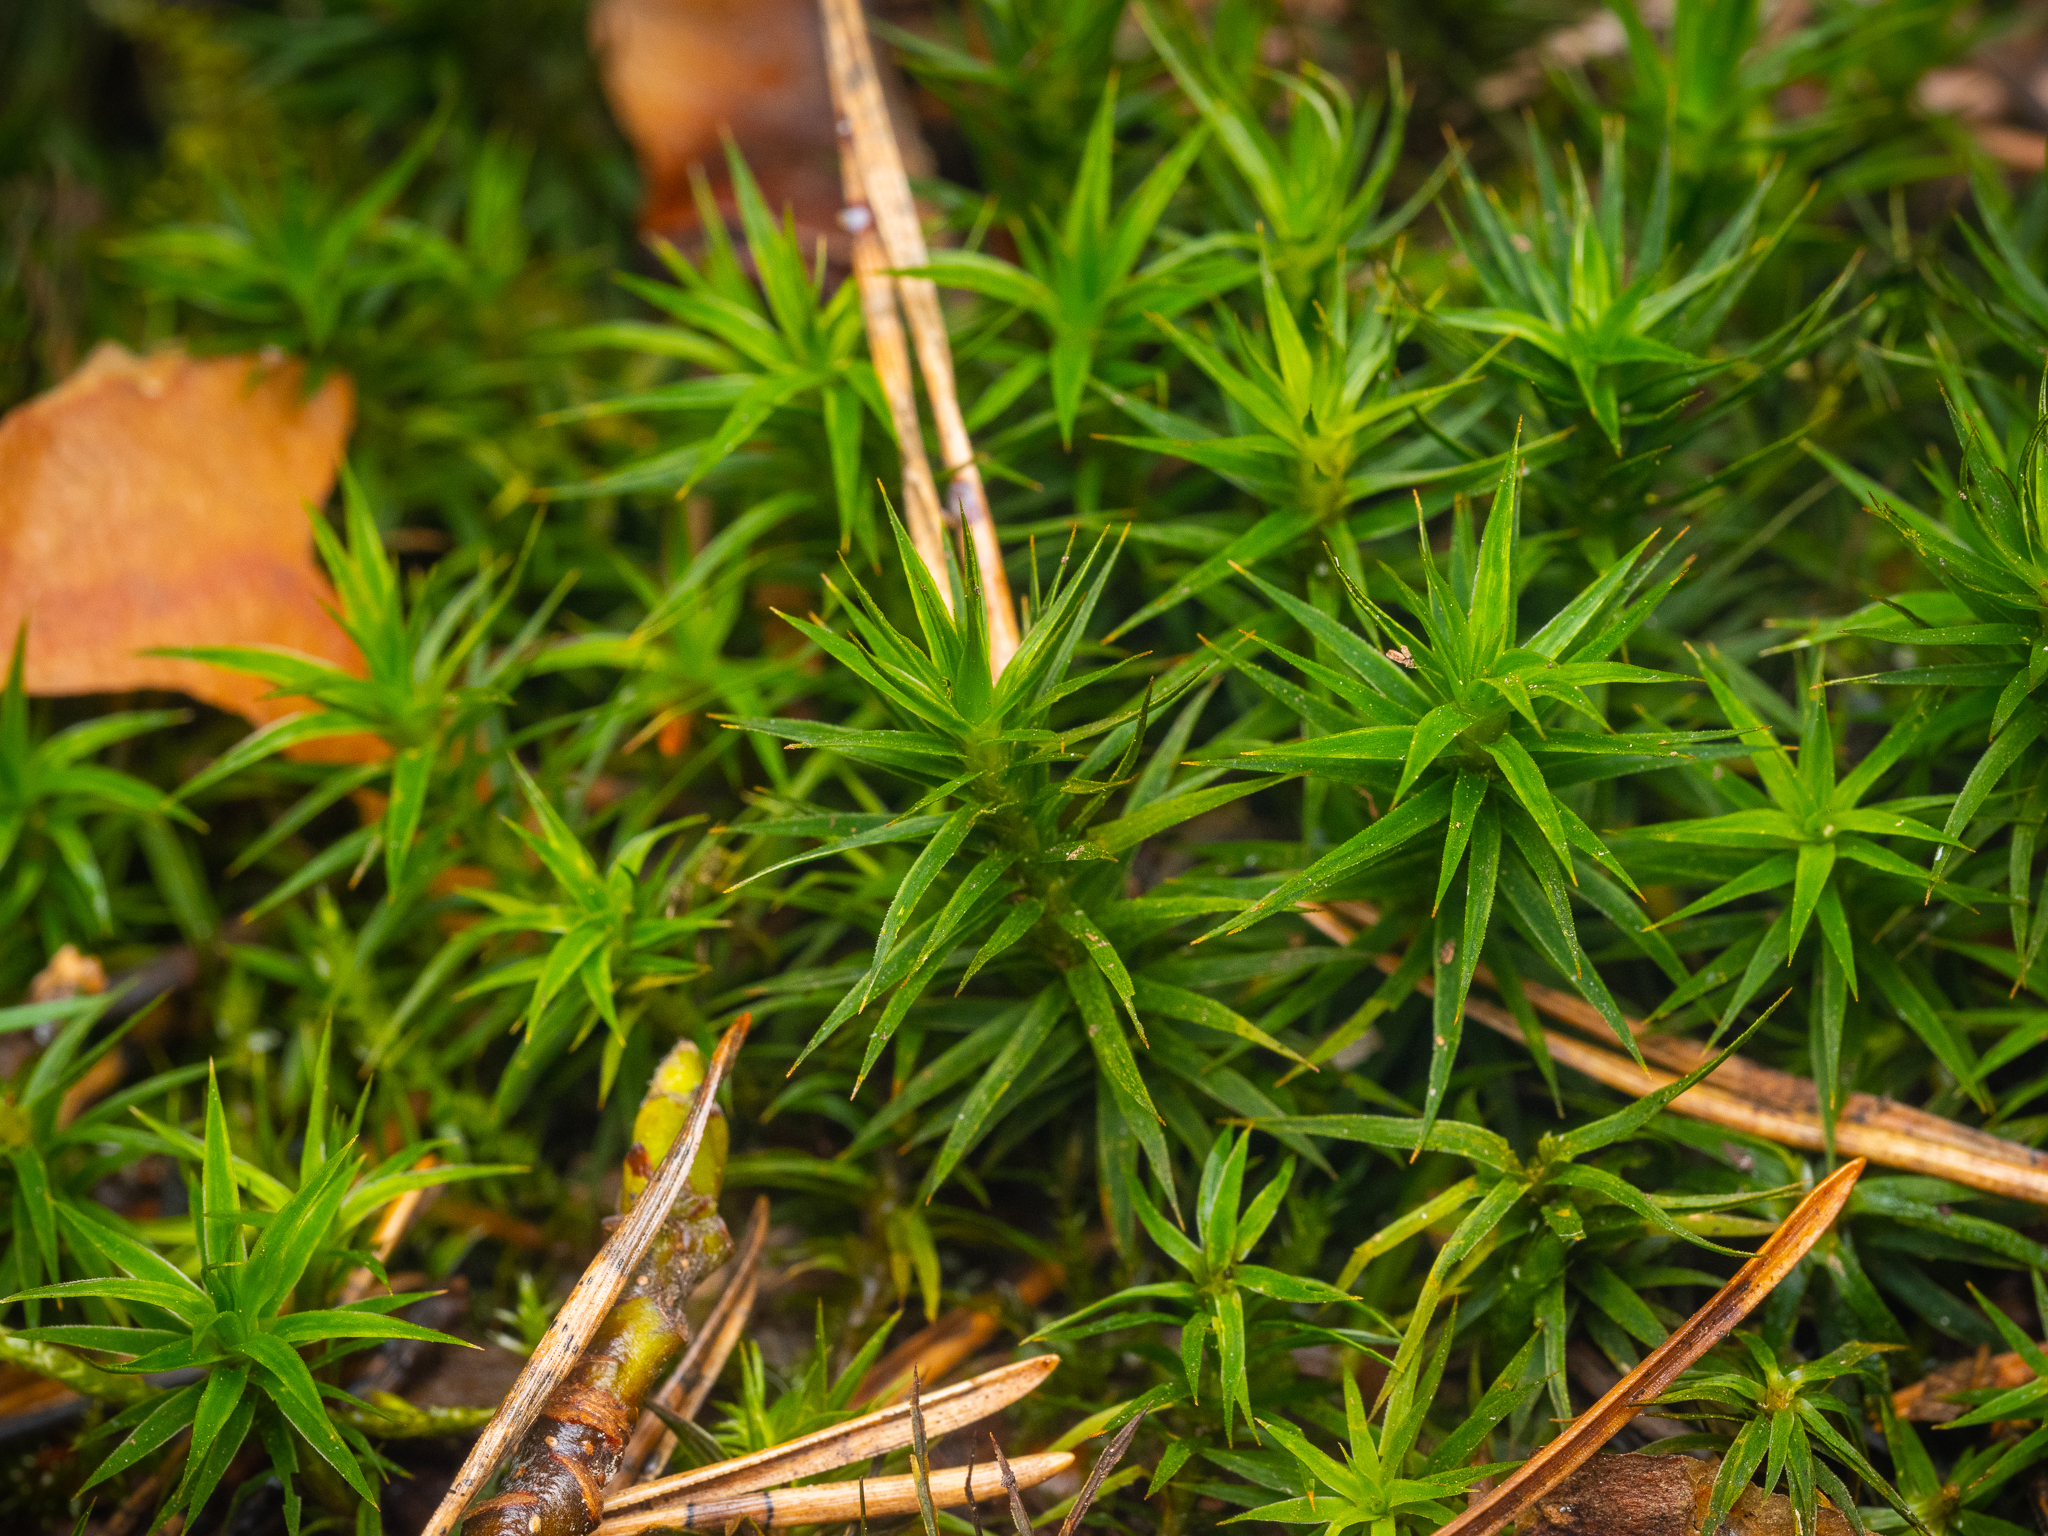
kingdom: Plantae
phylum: Bryophyta
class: Polytrichopsida
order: Polytrichales
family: Polytrichaceae
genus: Polytrichum
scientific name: Polytrichum formosum
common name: Bank haircap moss
